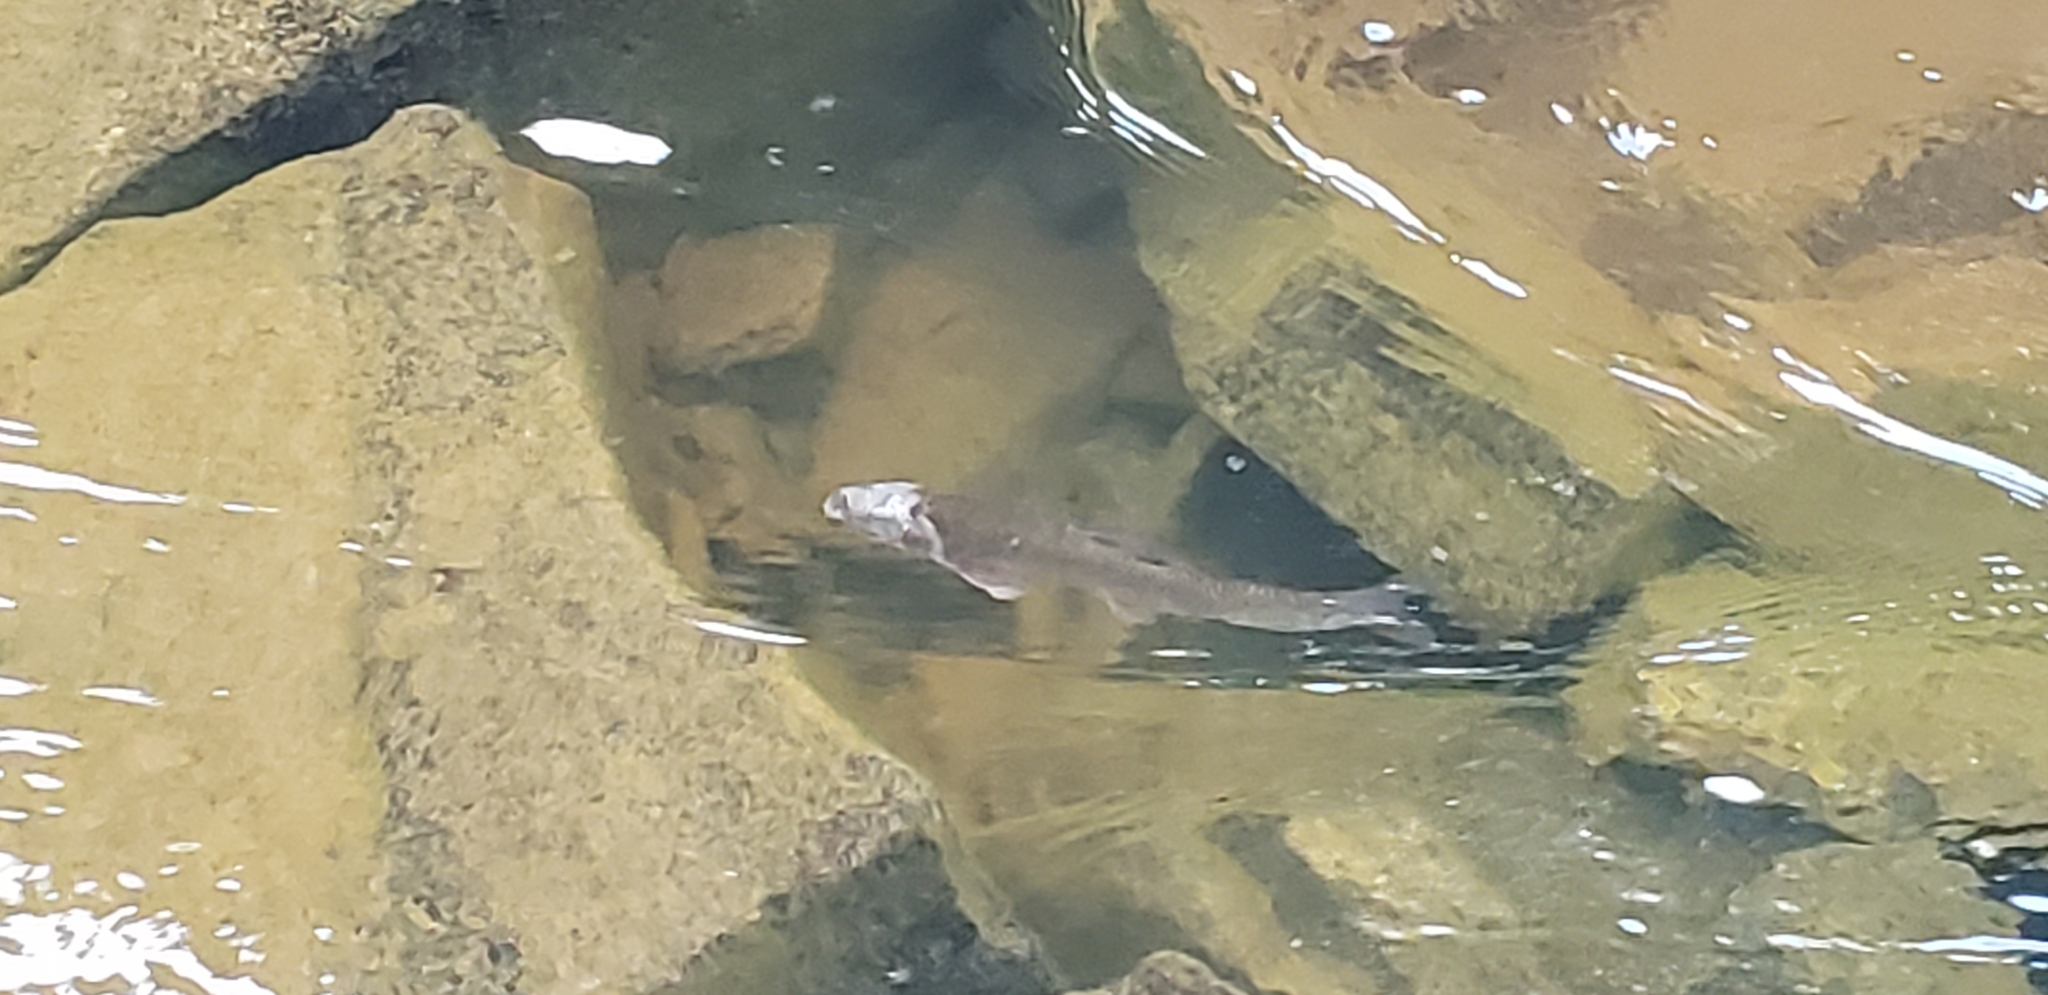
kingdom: Animalia
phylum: Chordata
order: Cypriniformes
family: Catostomidae
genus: Catostomus
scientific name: Catostomus commersonii
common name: White sucker
